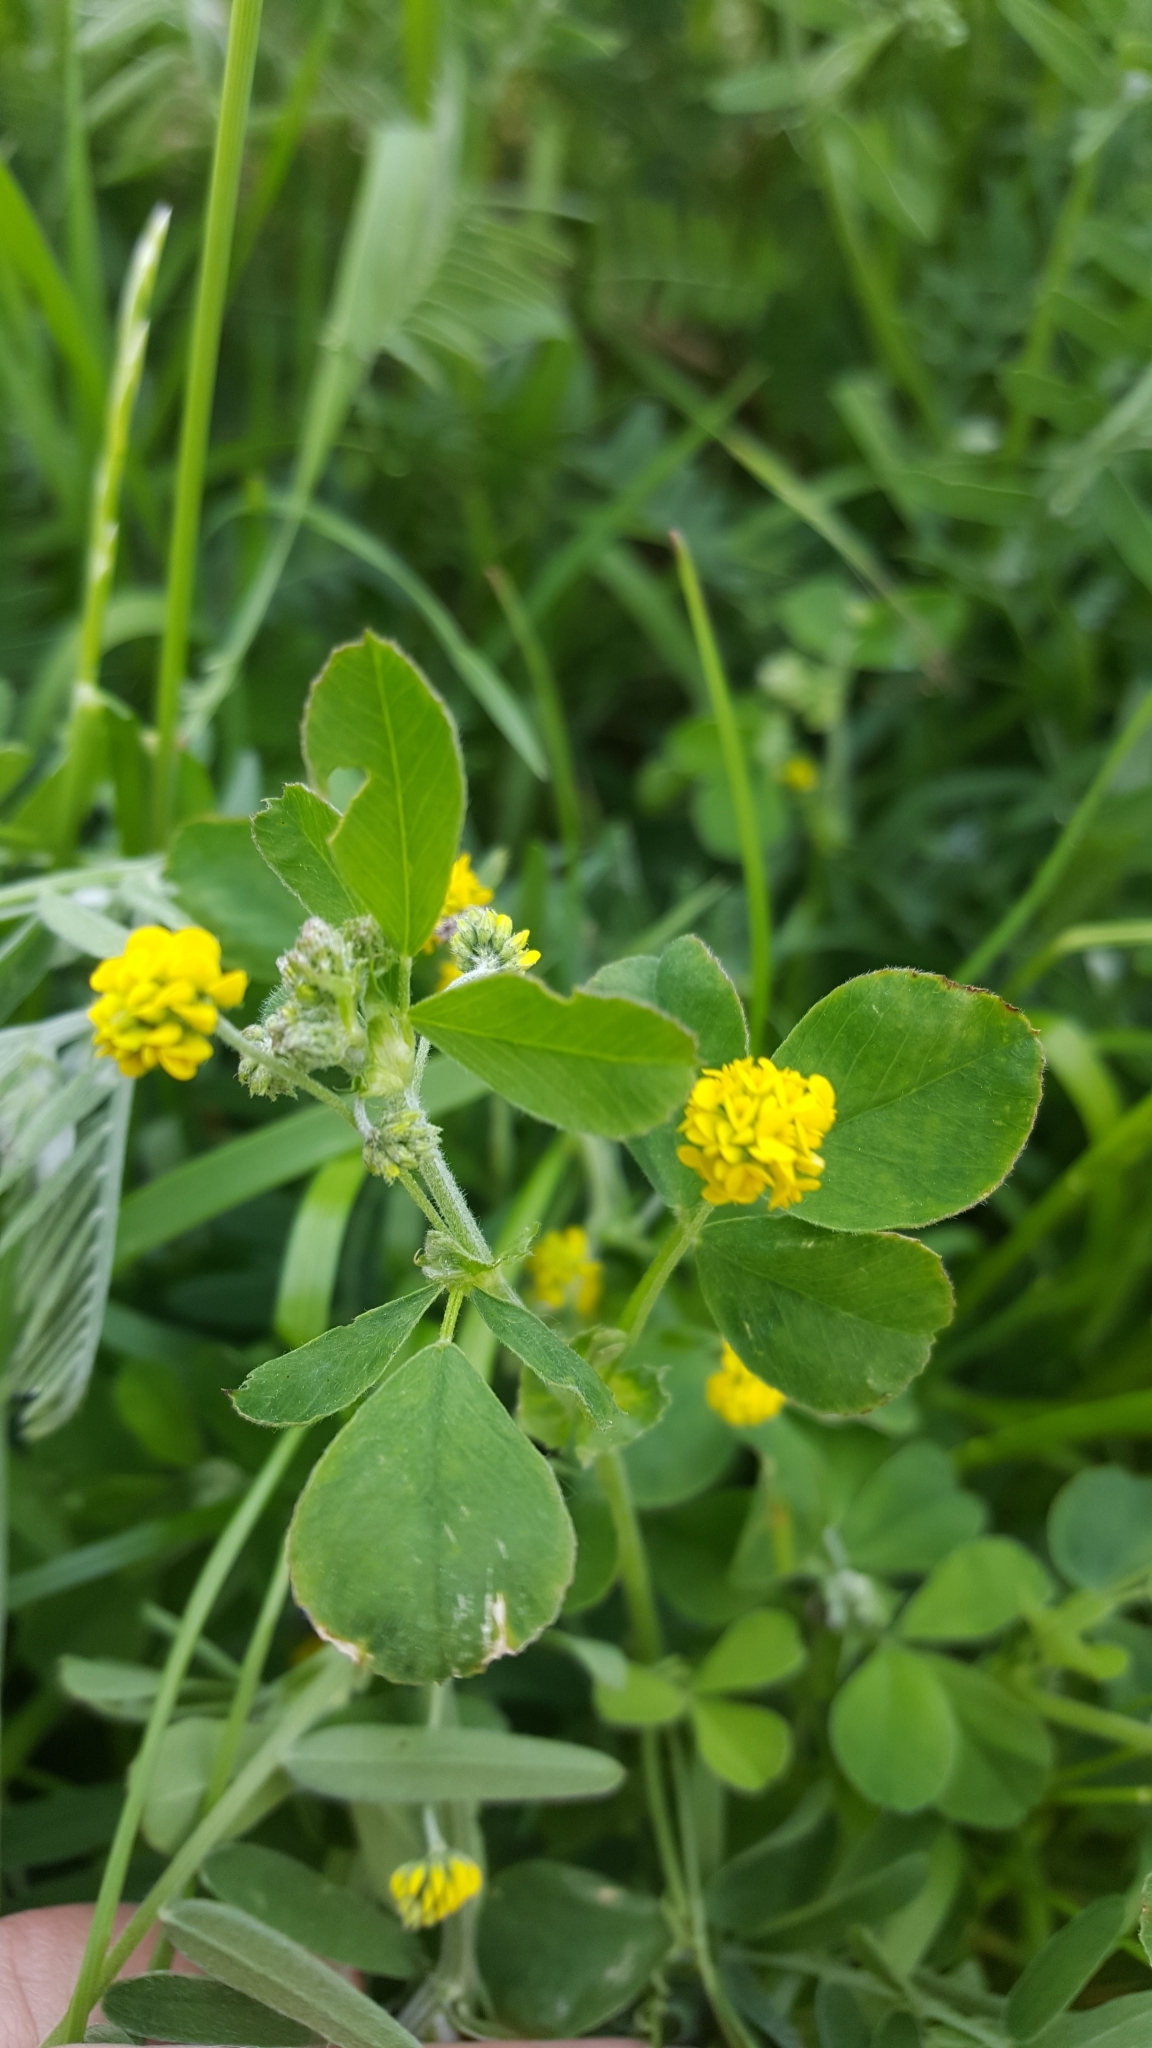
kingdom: Plantae
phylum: Tracheophyta
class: Magnoliopsida
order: Fabales
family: Fabaceae
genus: Medicago
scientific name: Medicago lupulina
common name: Black medick
